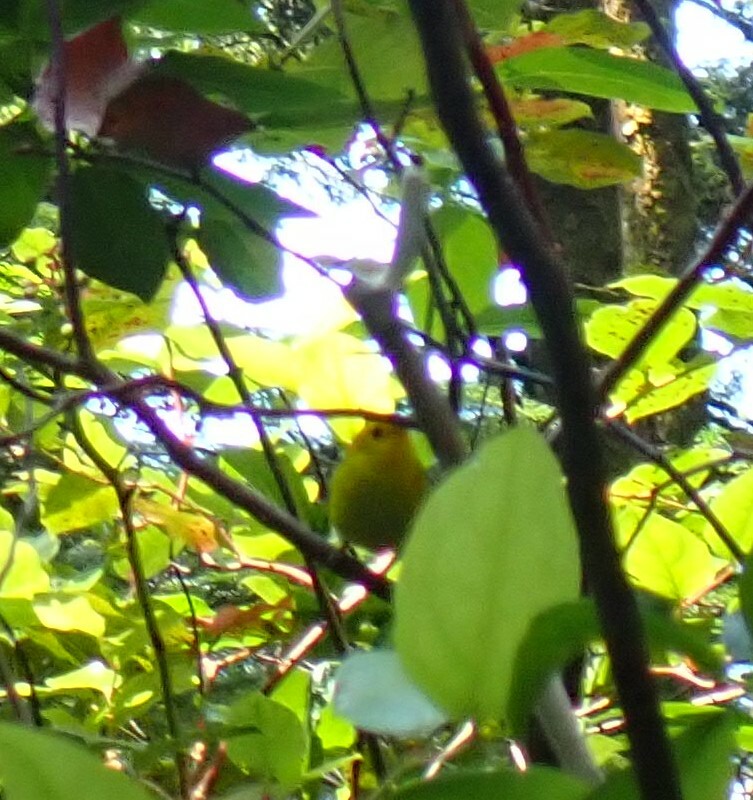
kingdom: Animalia
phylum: Chordata
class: Aves
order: Passeriformes
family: Parulidae
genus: Cardellina
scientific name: Cardellina pusilla
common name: Wilson's warbler
